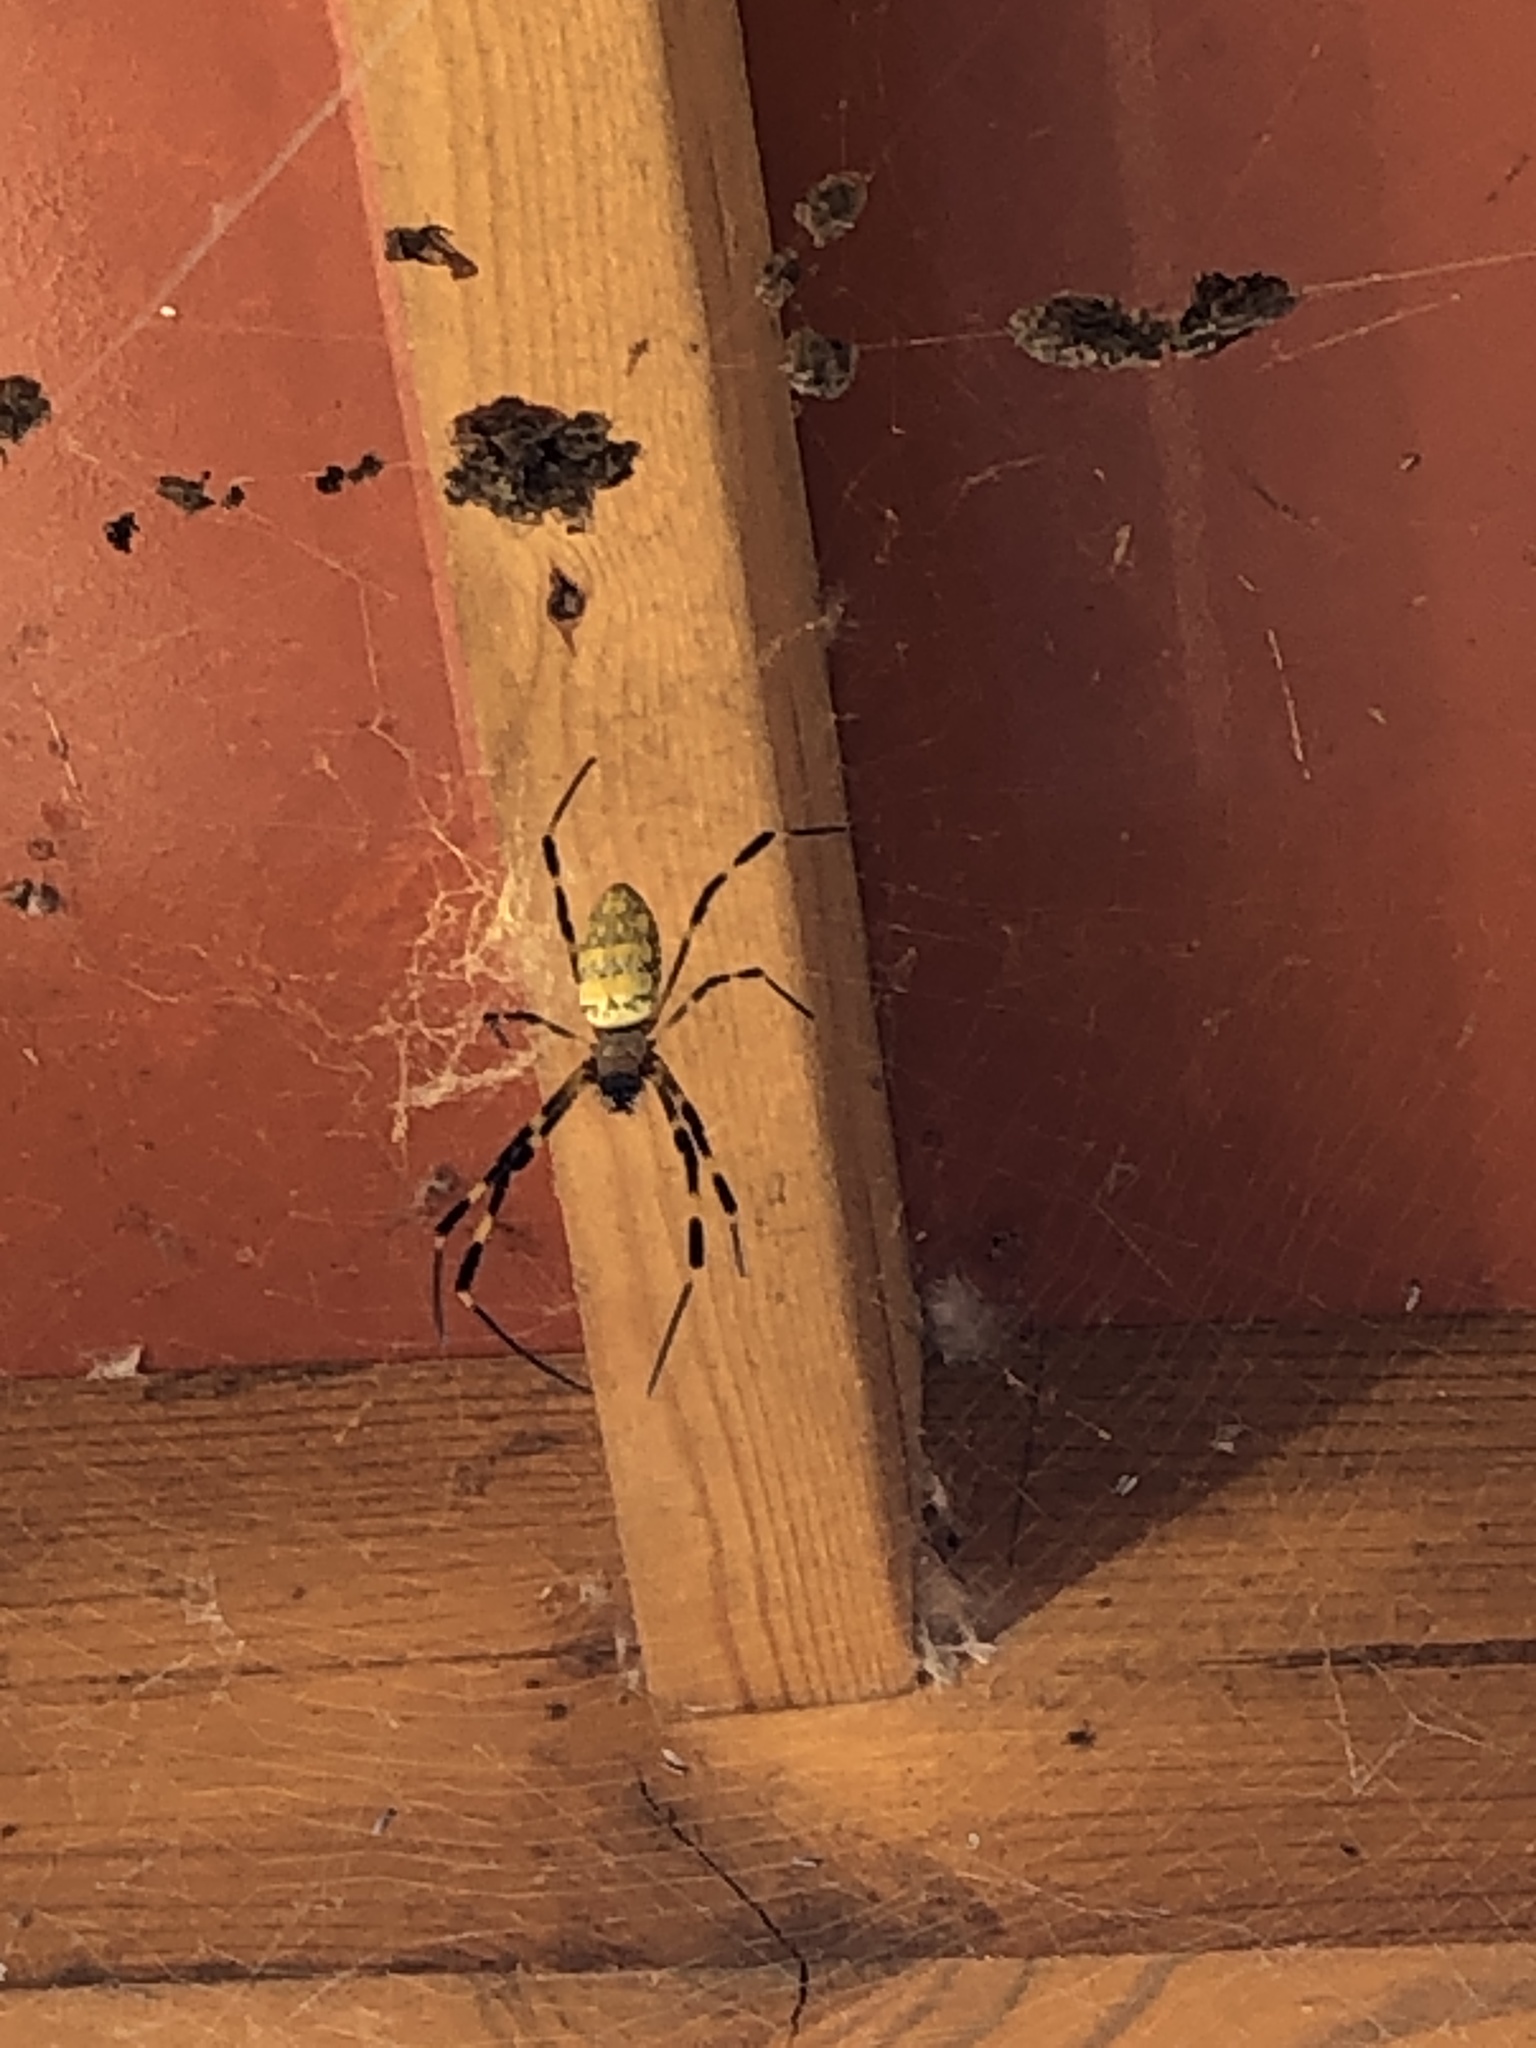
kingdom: Animalia
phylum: Arthropoda
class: Arachnida
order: Araneae
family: Araneidae
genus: Trichonephila
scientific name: Trichonephila clavata
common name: Jorō spider
